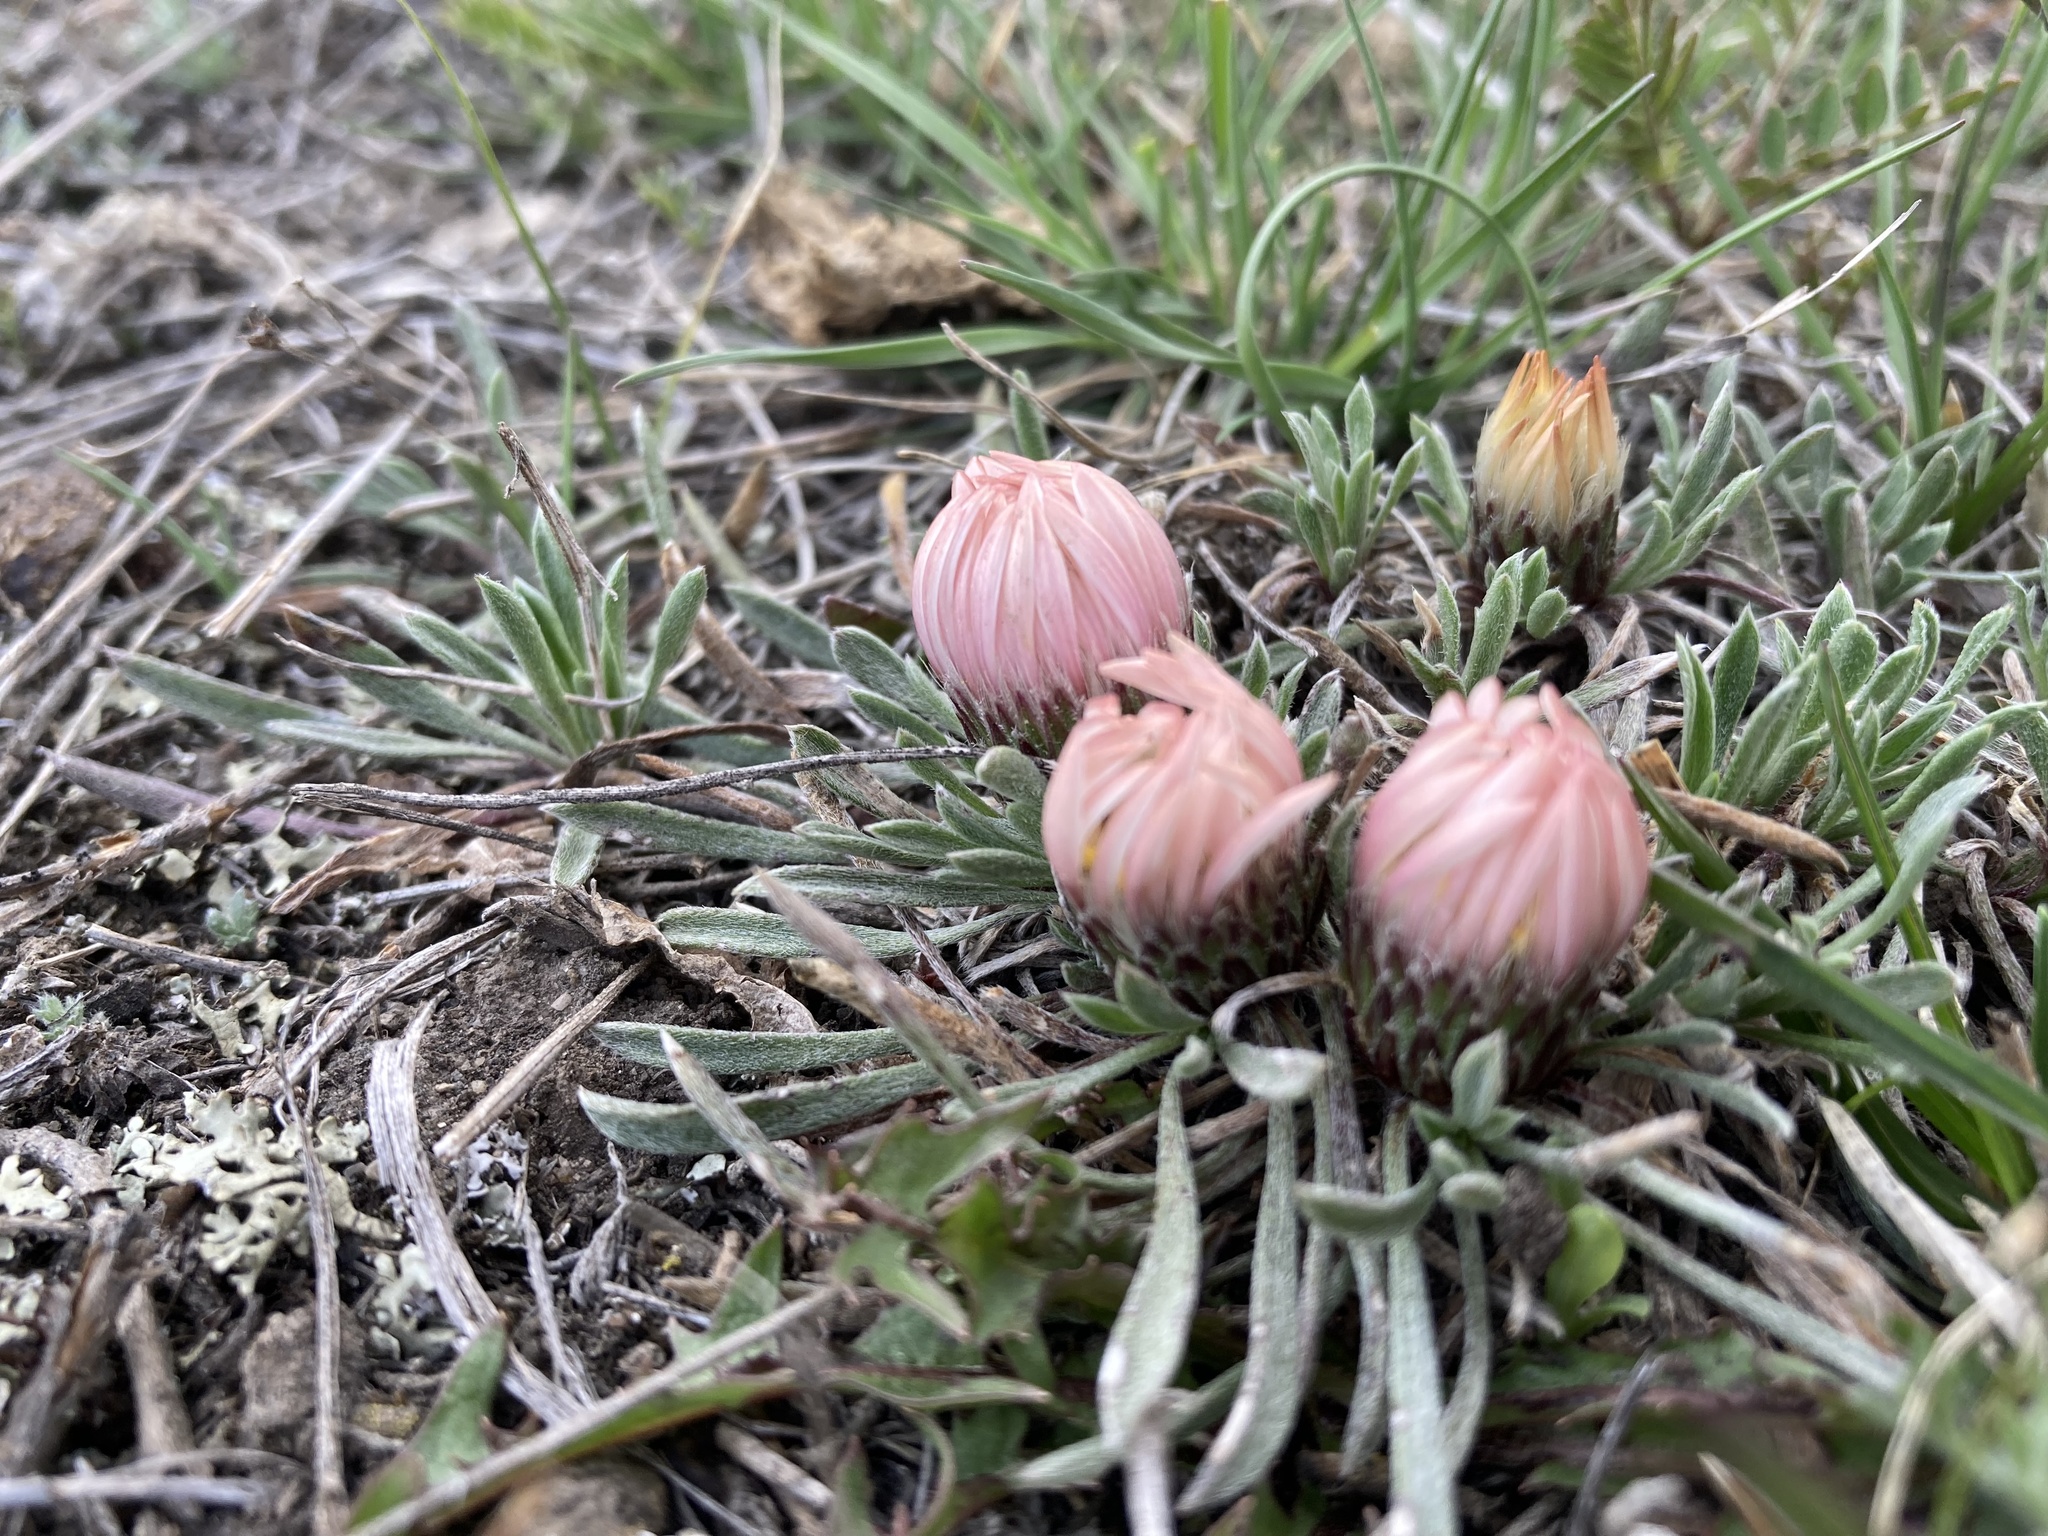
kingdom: Plantae
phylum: Tracheophyta
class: Magnoliopsida
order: Asterales
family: Asteraceae
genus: Townsendia
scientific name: Townsendia hookeri
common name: Hooker's townsend daisy
